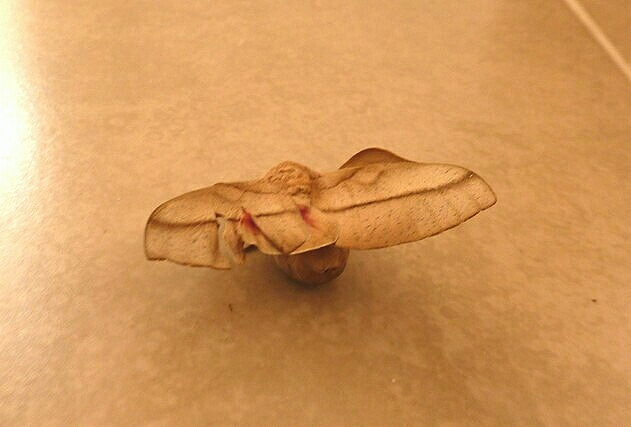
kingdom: Animalia
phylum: Arthropoda
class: Insecta
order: Lepidoptera
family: Saturniidae
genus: Syssphinx
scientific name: Syssphinx molina
